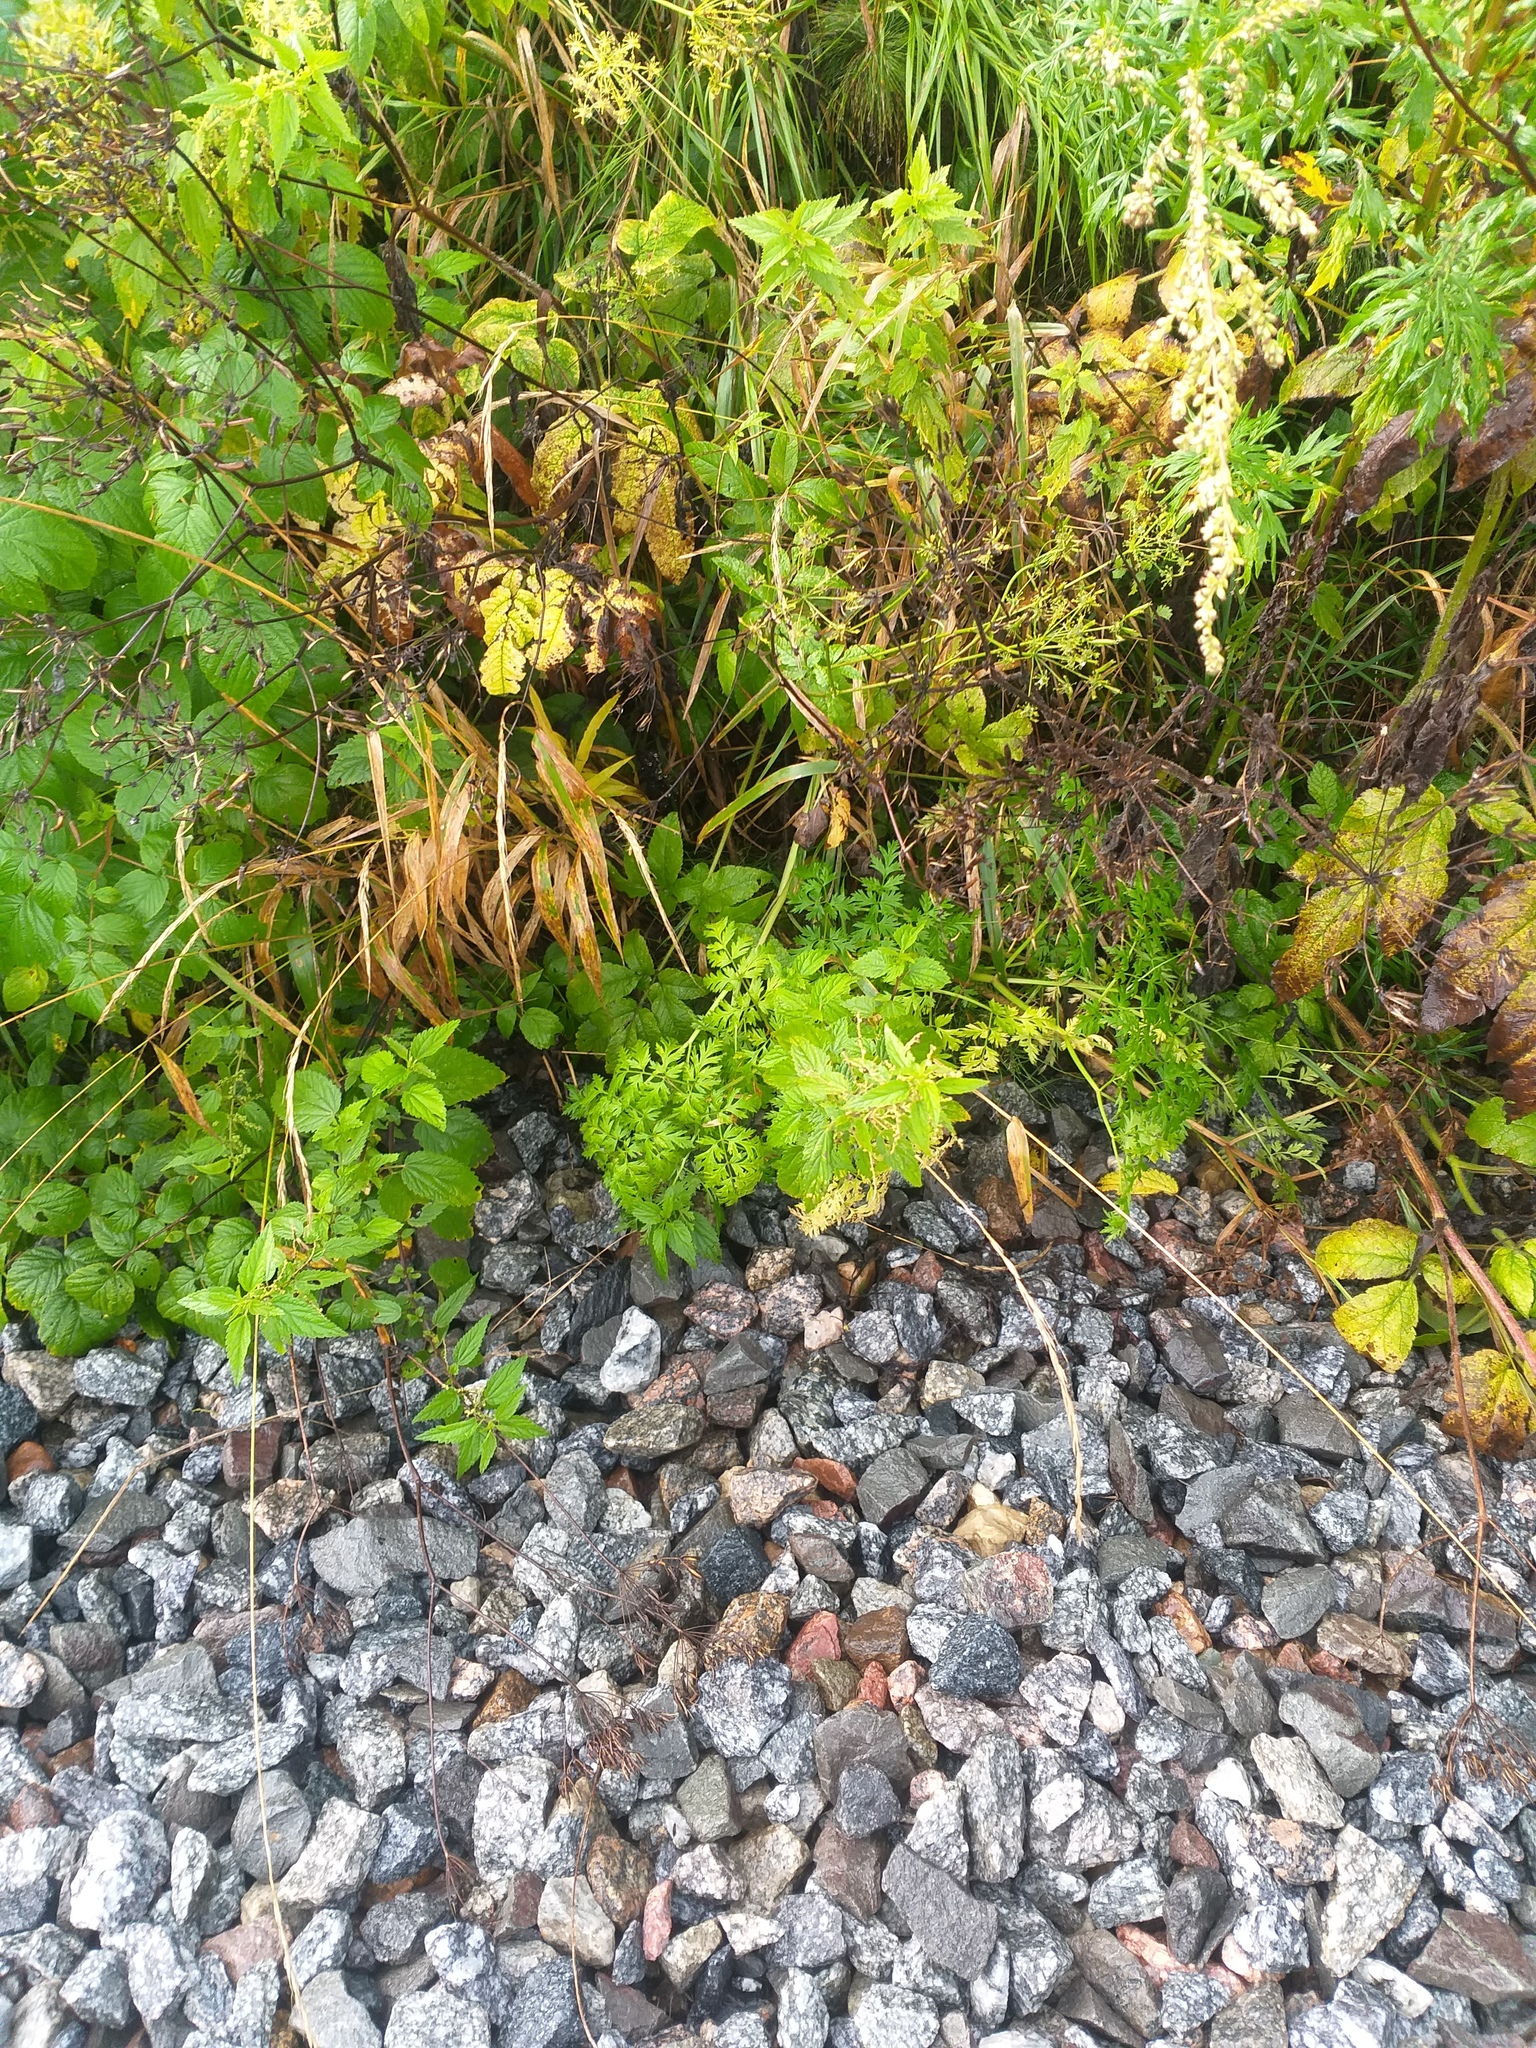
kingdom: Plantae
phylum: Tracheophyta
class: Magnoliopsida
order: Rosales
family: Urticaceae
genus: Urtica
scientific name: Urtica dioica
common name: Common nettle
